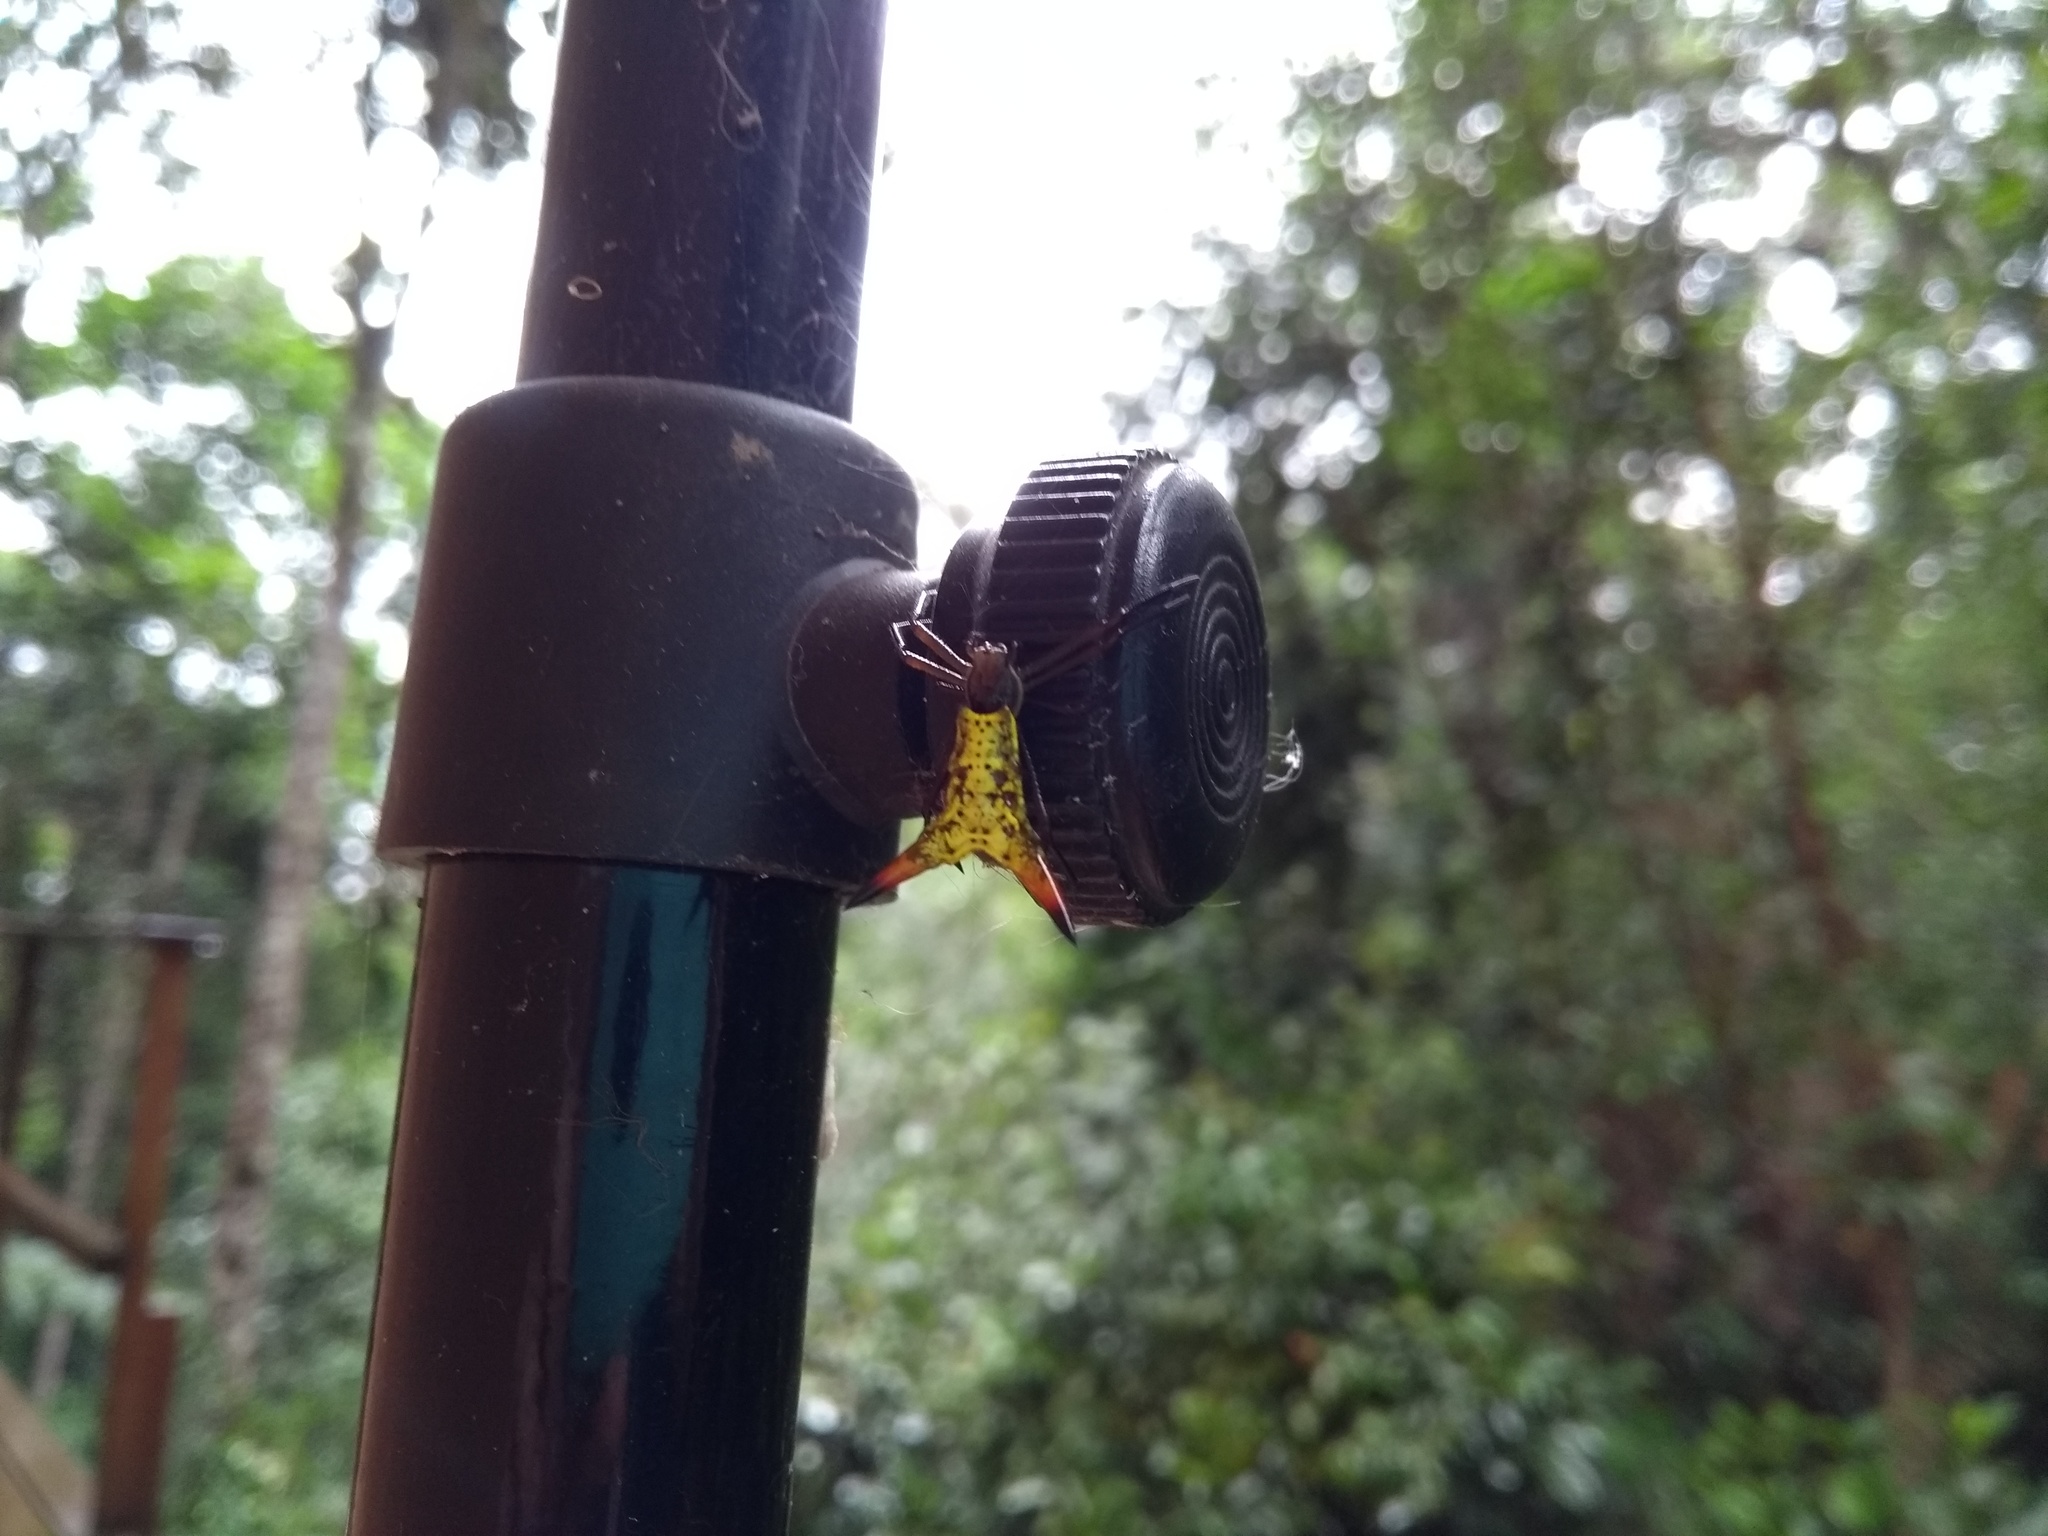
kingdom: Animalia
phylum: Arthropoda
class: Arachnida
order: Araneae
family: Araneidae
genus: Micrathena
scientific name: Micrathena crassispina
